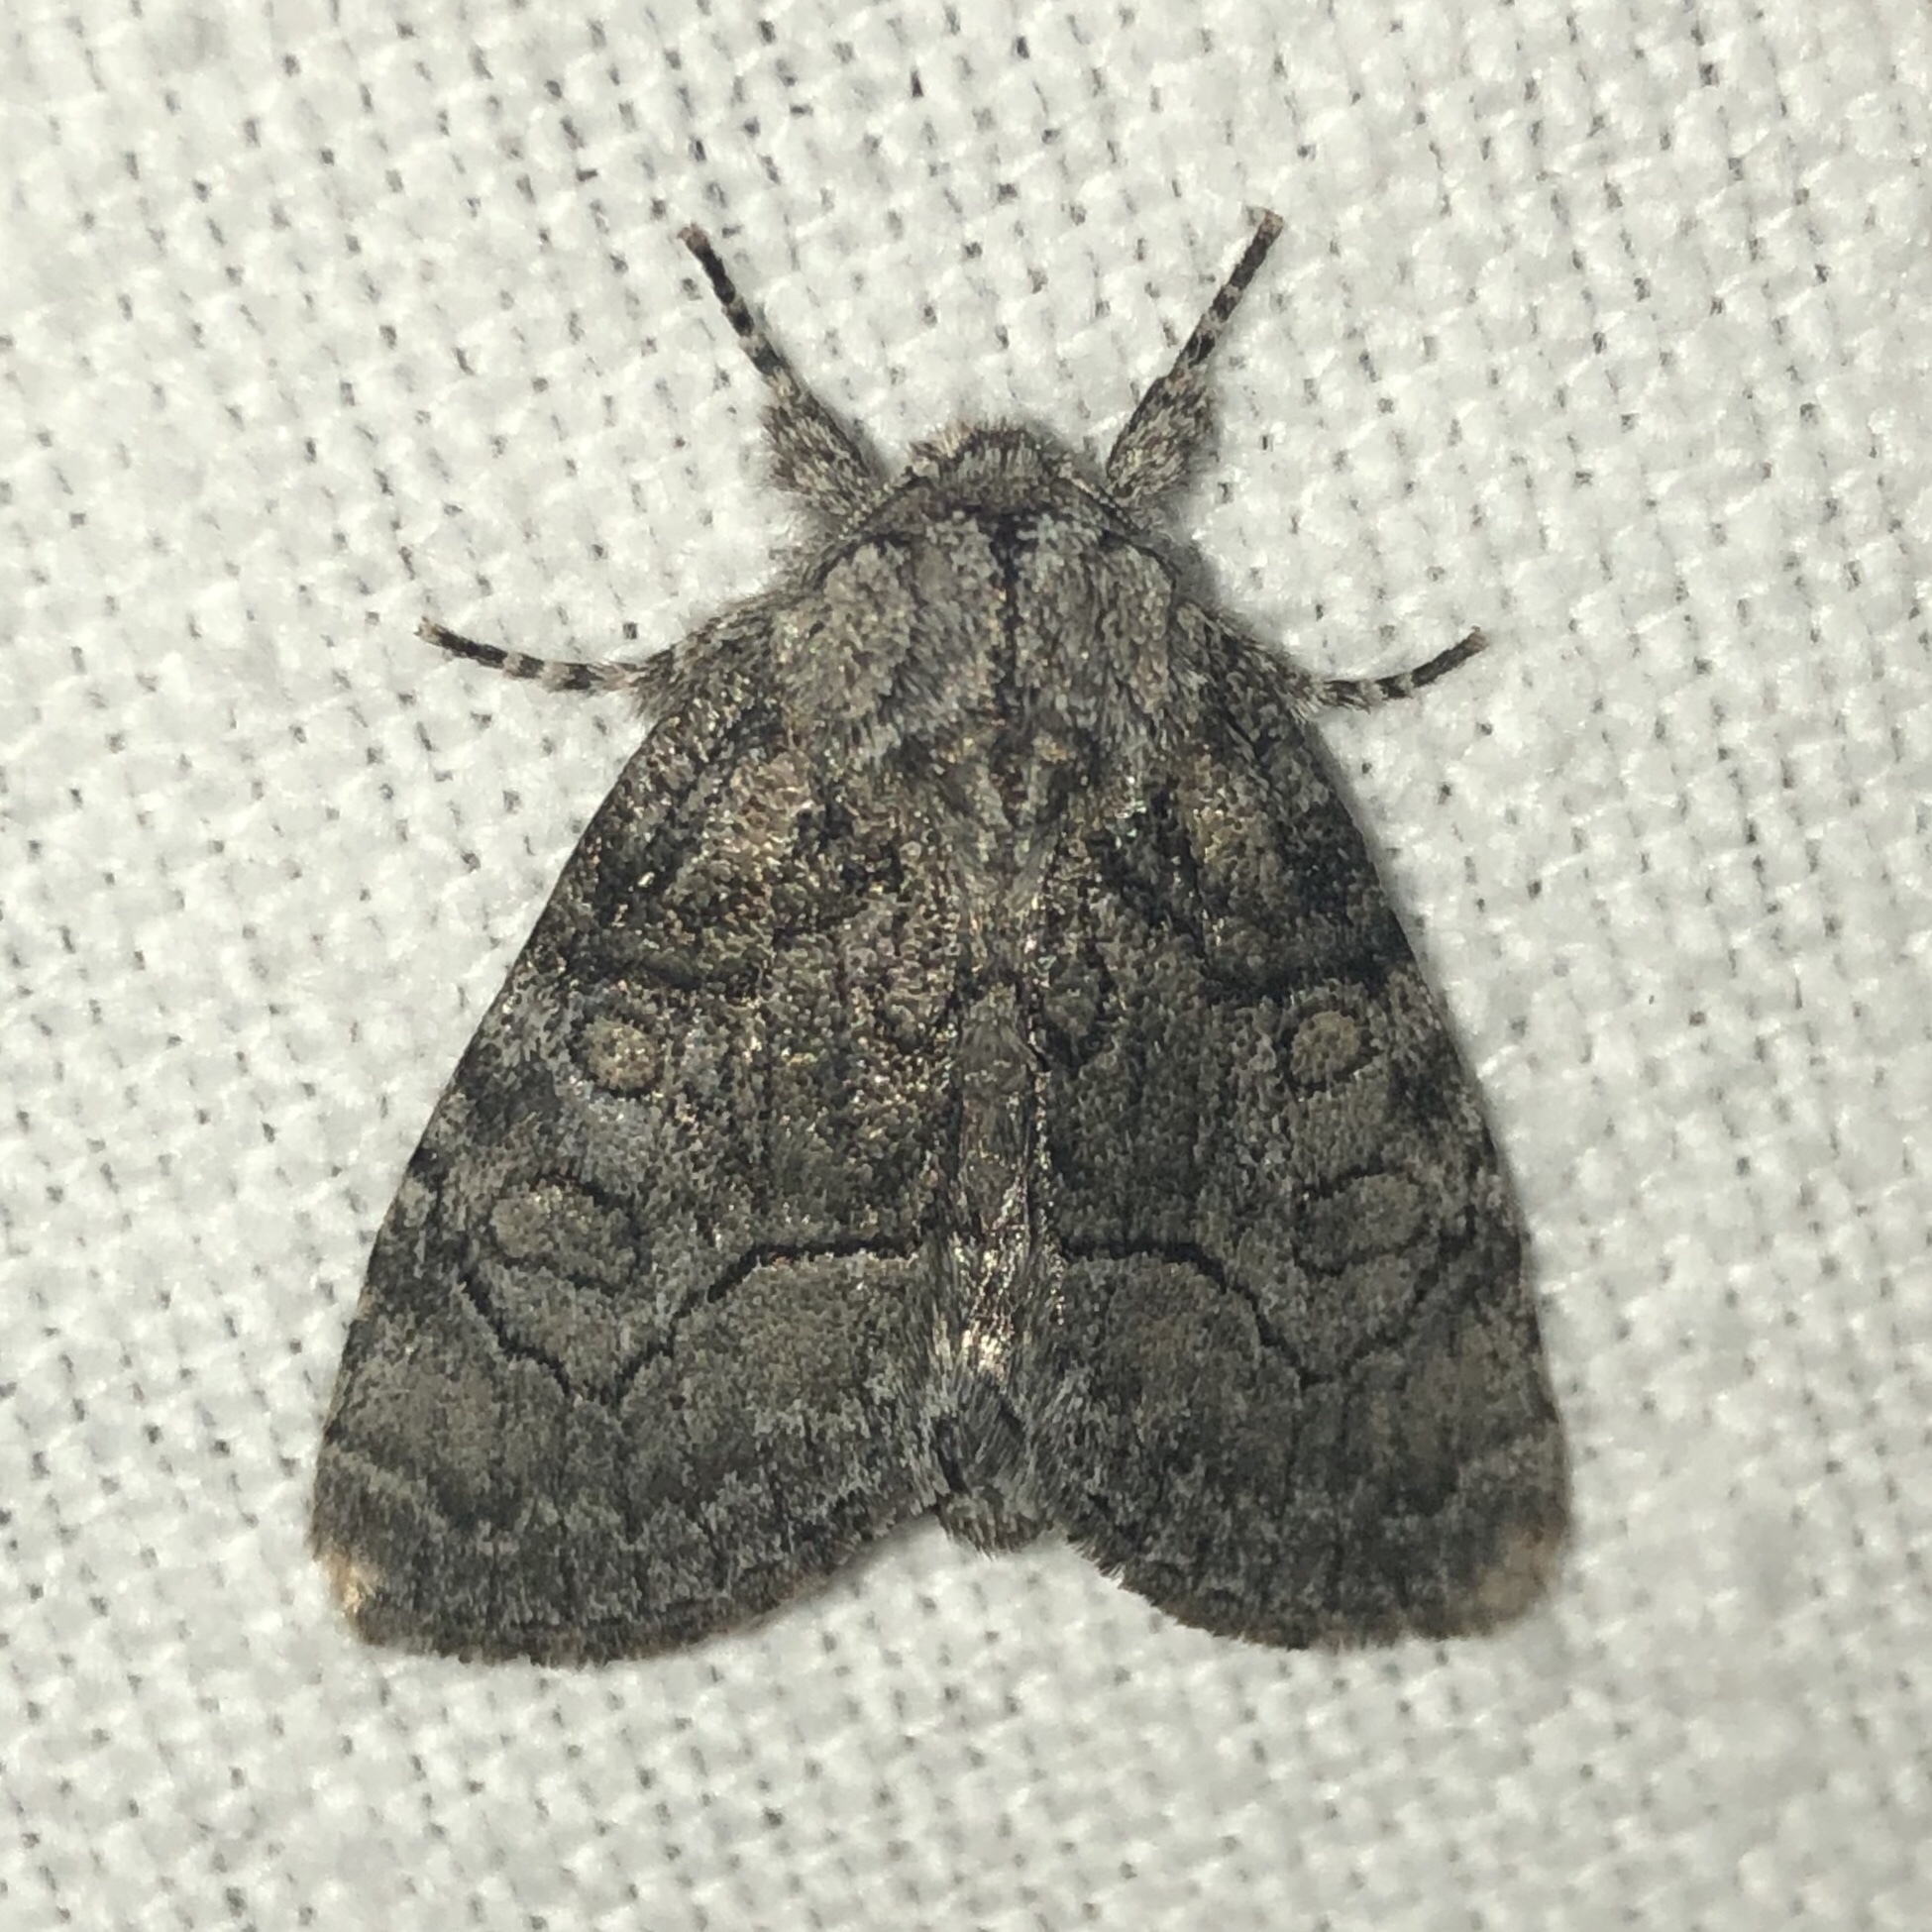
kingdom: Animalia
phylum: Arthropoda
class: Insecta
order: Lepidoptera
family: Noctuidae
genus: Raphia
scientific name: Raphia frater
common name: Brother
